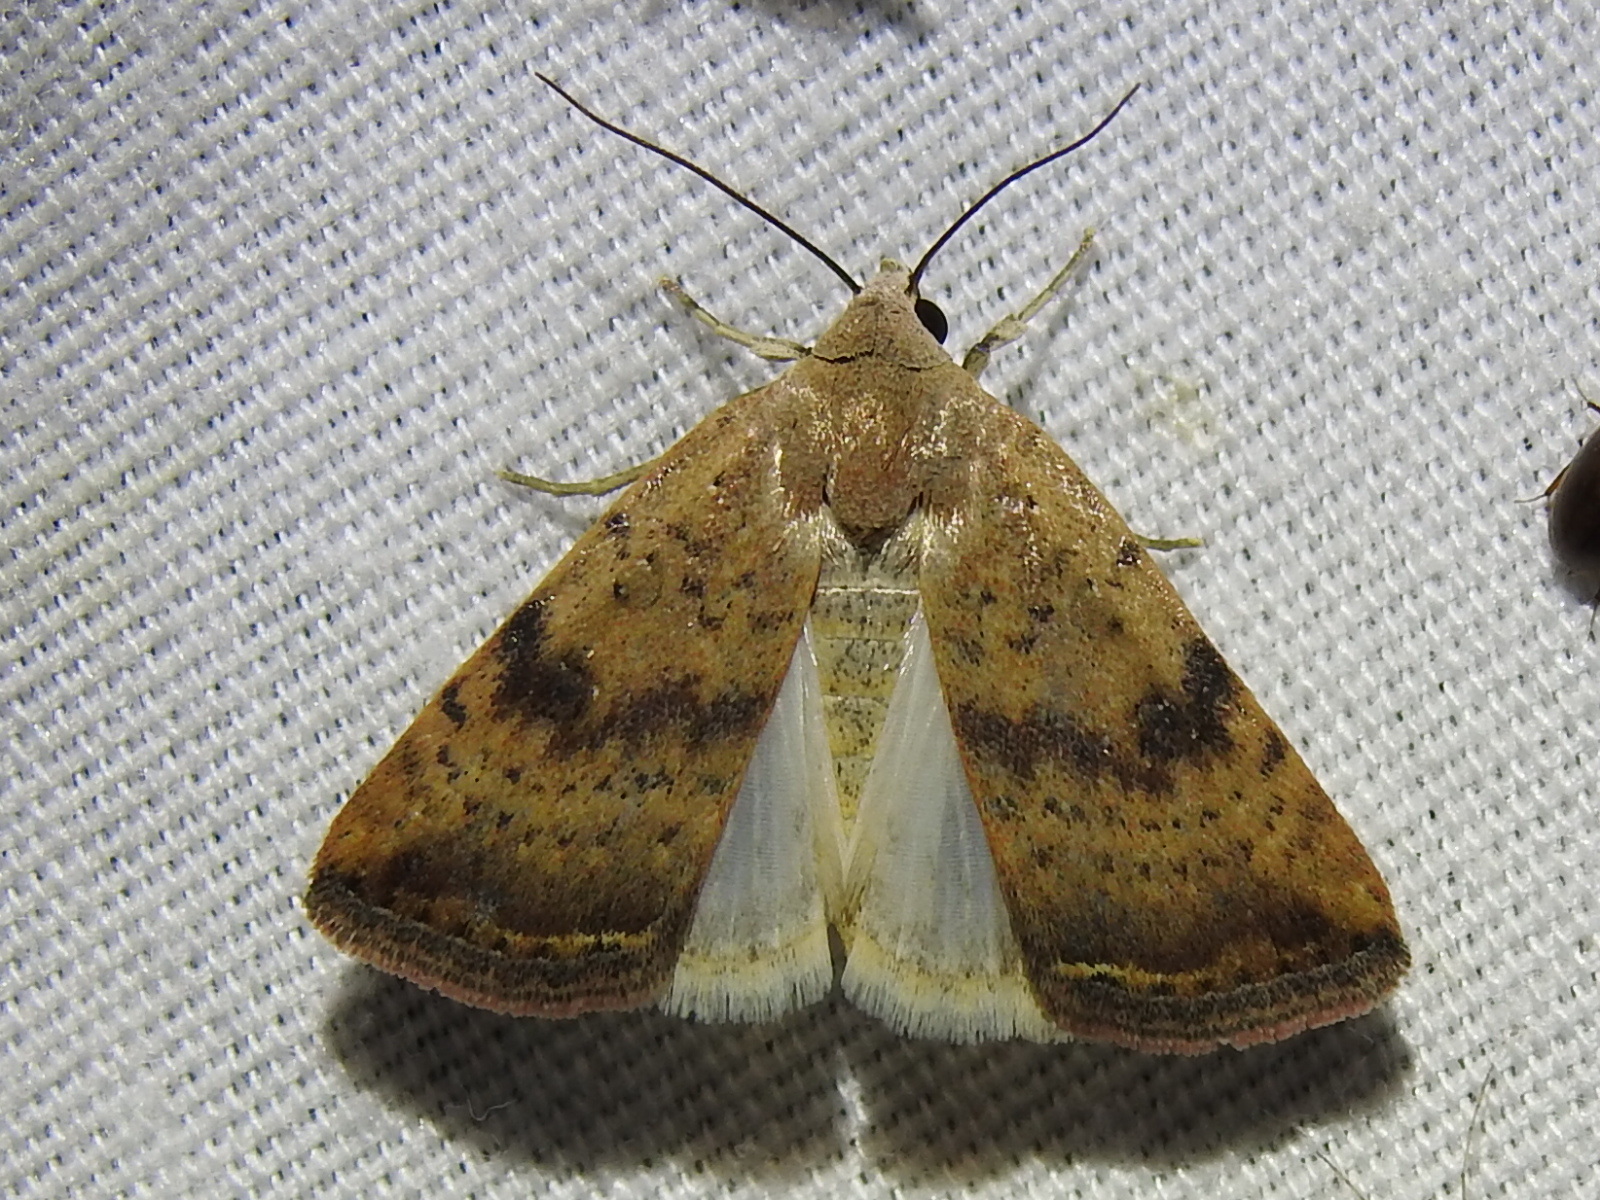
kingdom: Animalia
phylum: Arthropoda
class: Insecta
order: Lepidoptera
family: Noctuidae
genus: Micrathetis
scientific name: Micrathetis triplex
